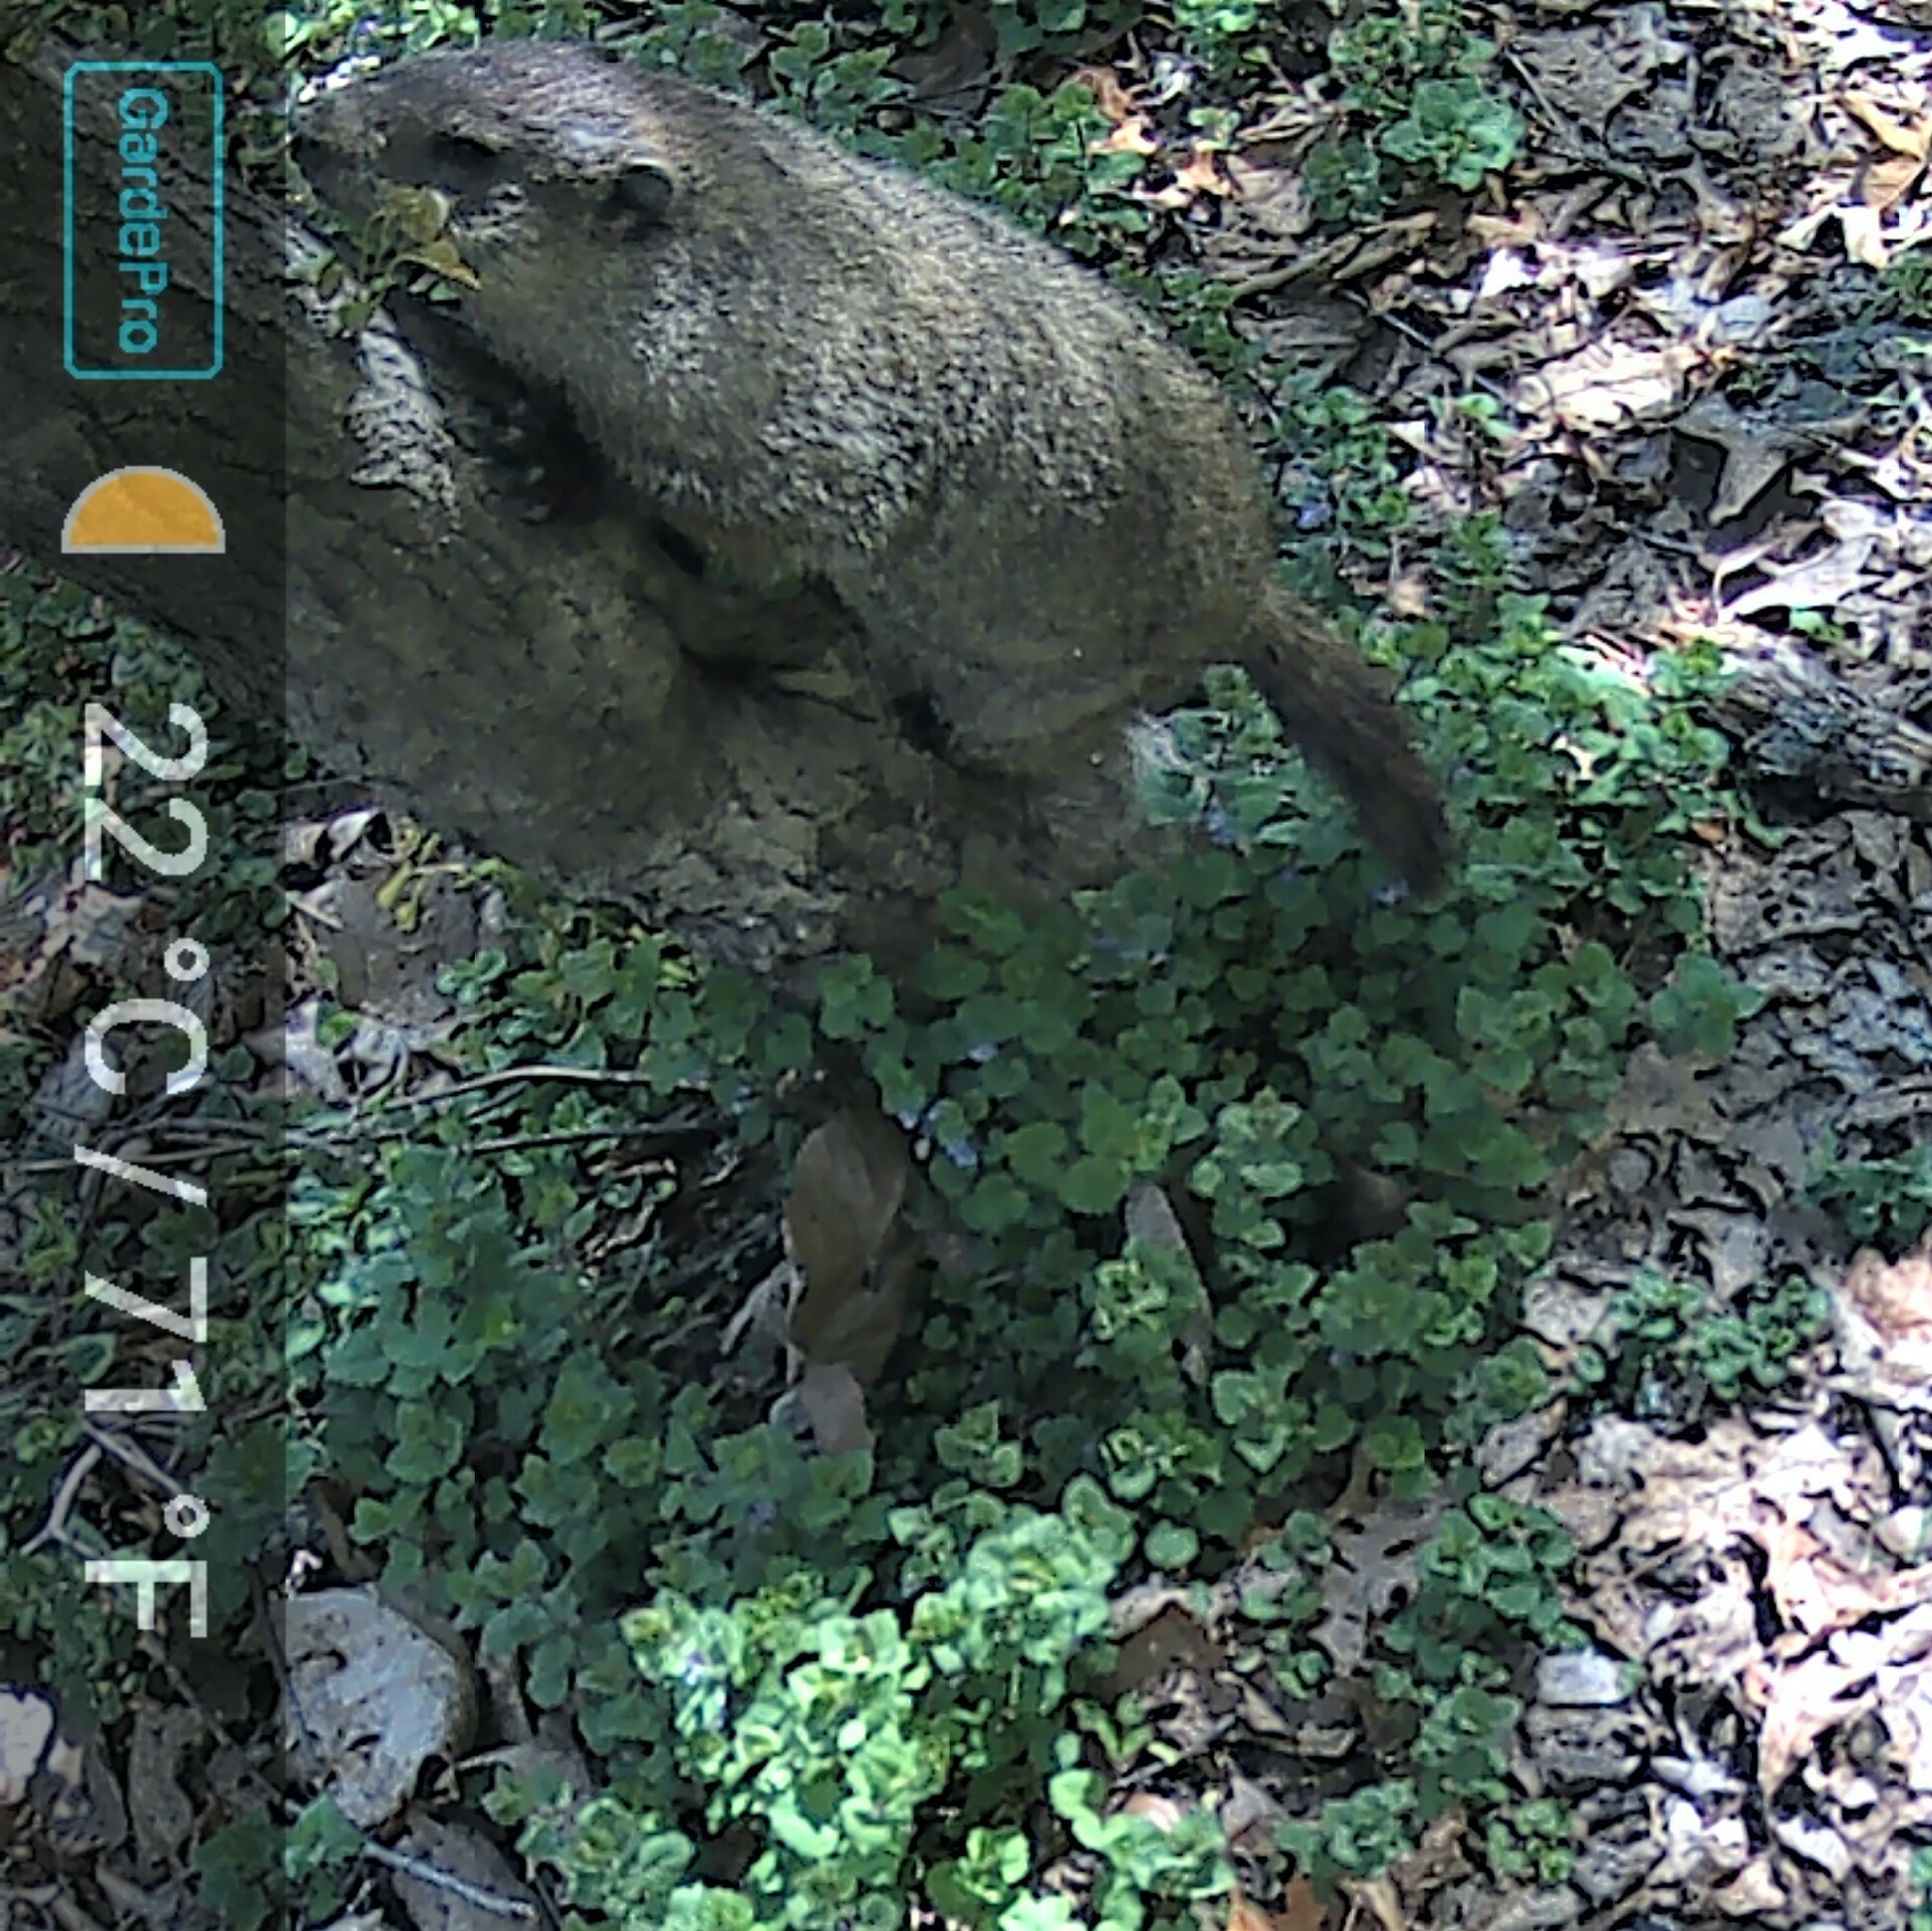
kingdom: Animalia
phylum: Chordata
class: Mammalia
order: Rodentia
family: Sciuridae
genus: Marmota
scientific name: Marmota monax
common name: Groundhog
